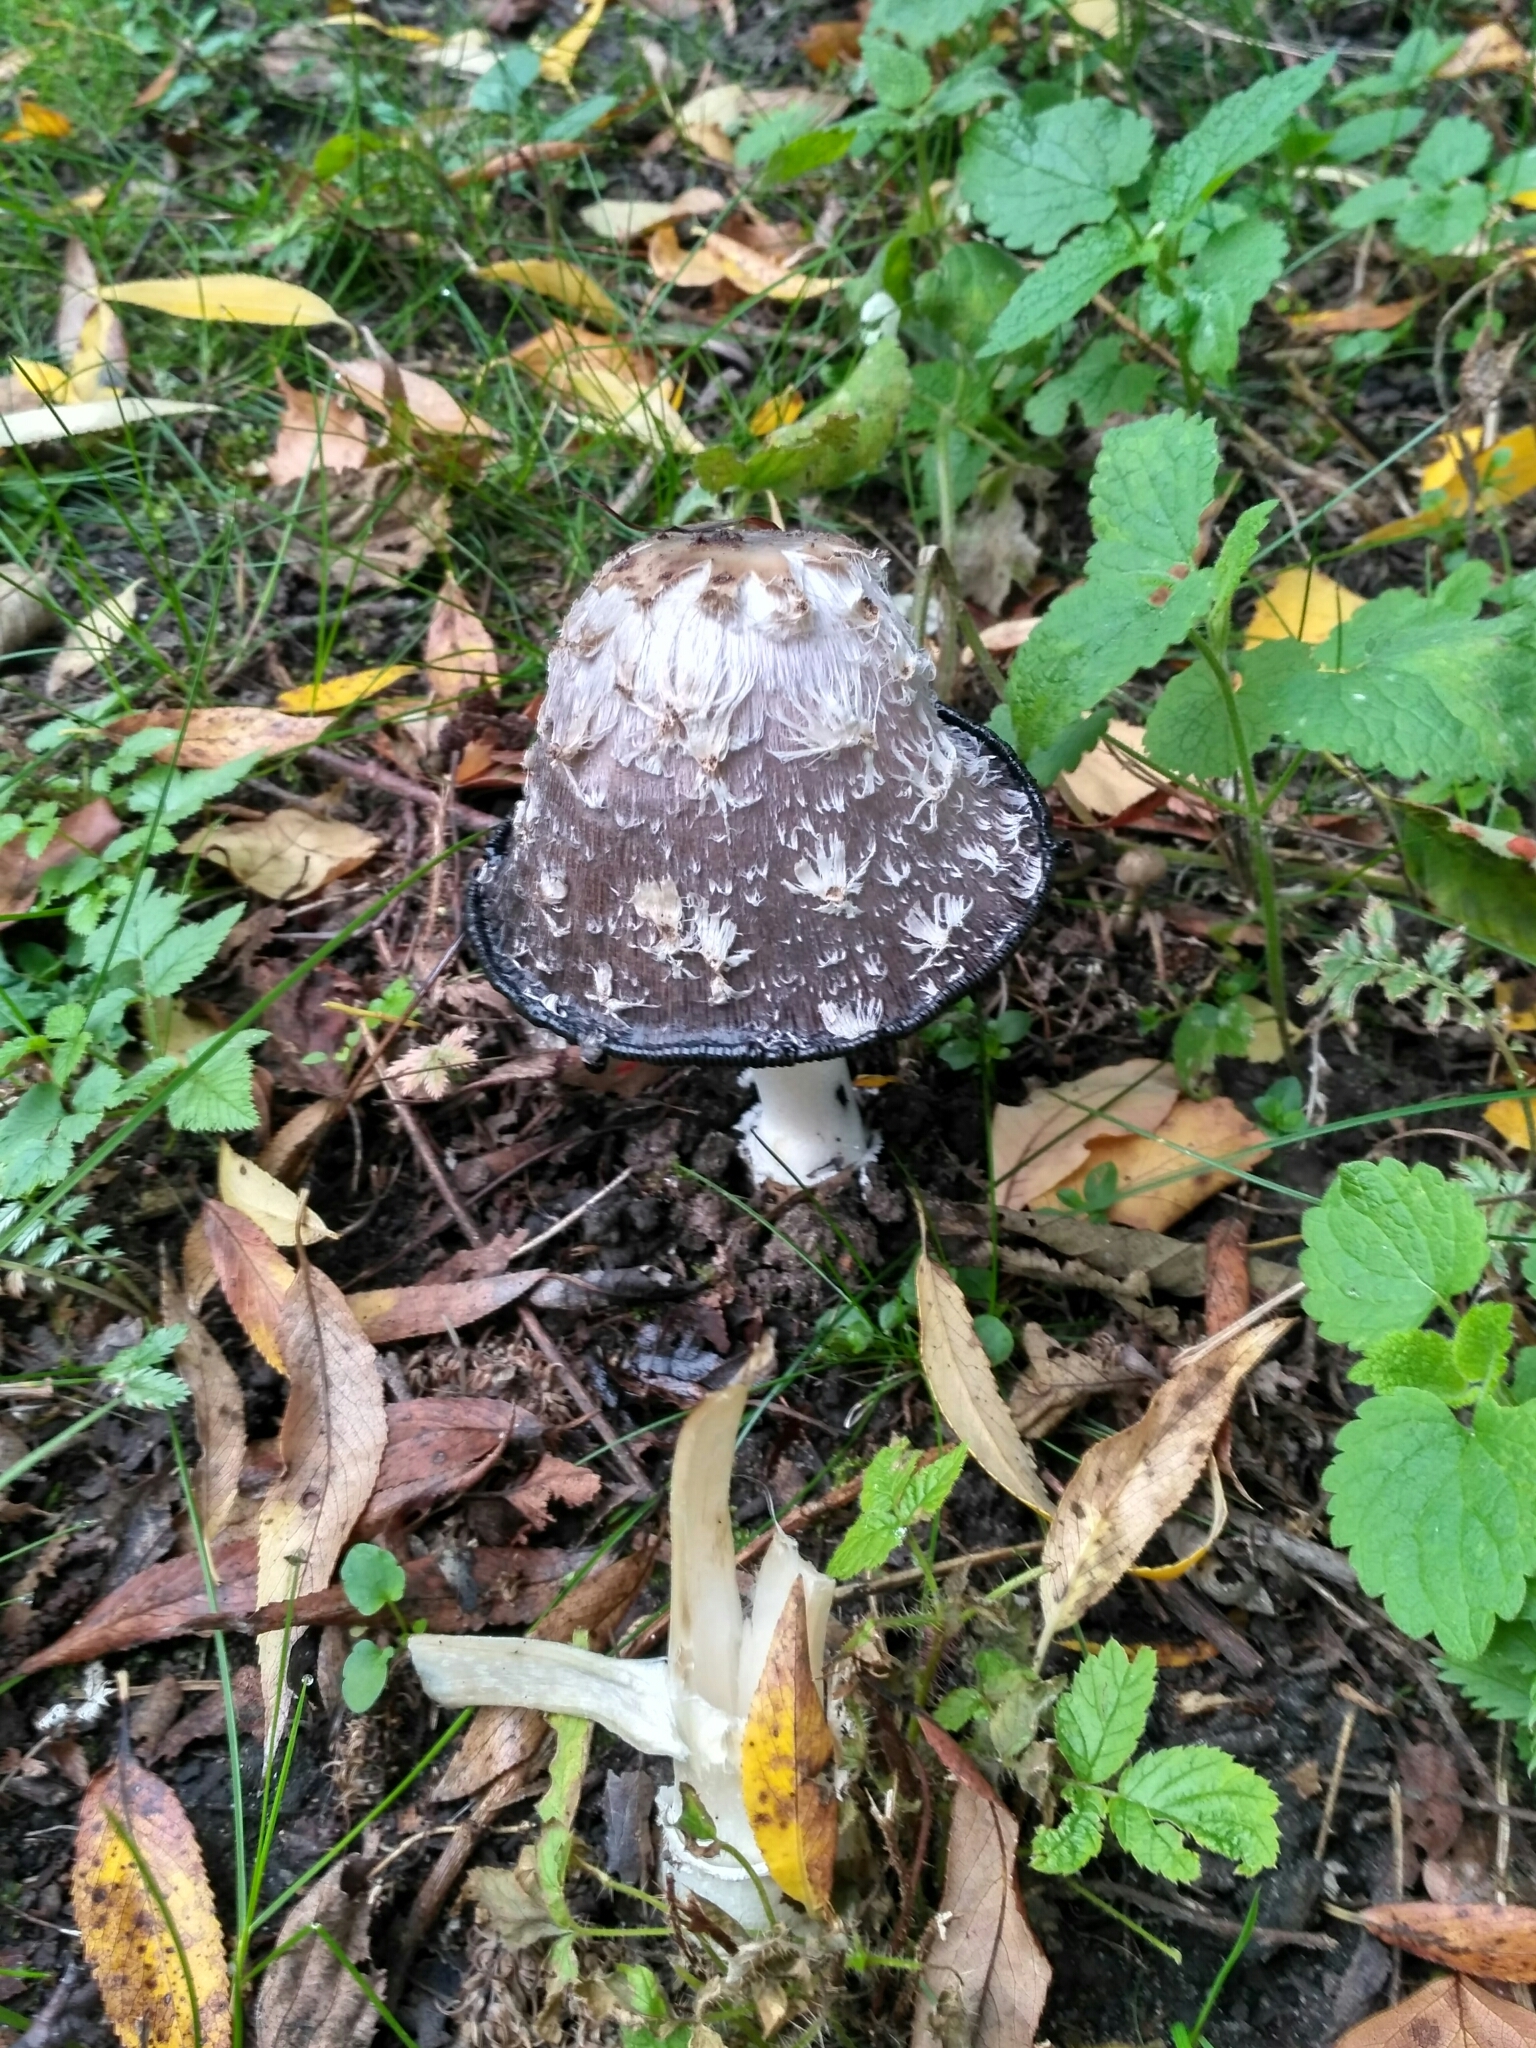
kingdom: Fungi
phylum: Basidiomycota
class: Agaricomycetes
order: Agaricales
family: Agaricaceae
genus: Coprinus
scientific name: Coprinus comatus
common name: Lawyer's wig
